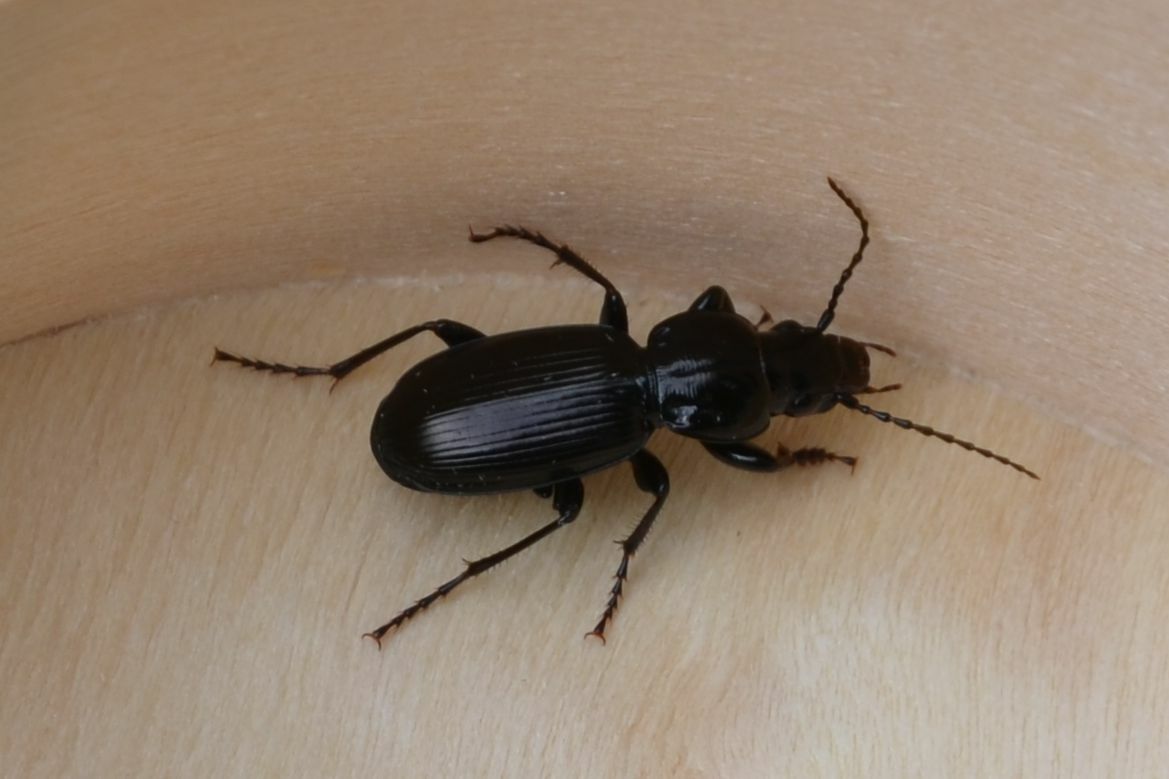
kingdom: Animalia
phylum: Arthropoda
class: Insecta
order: Coleoptera
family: Carabidae
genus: Pterostichus
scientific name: Pterostichus madidus
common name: Black clock
